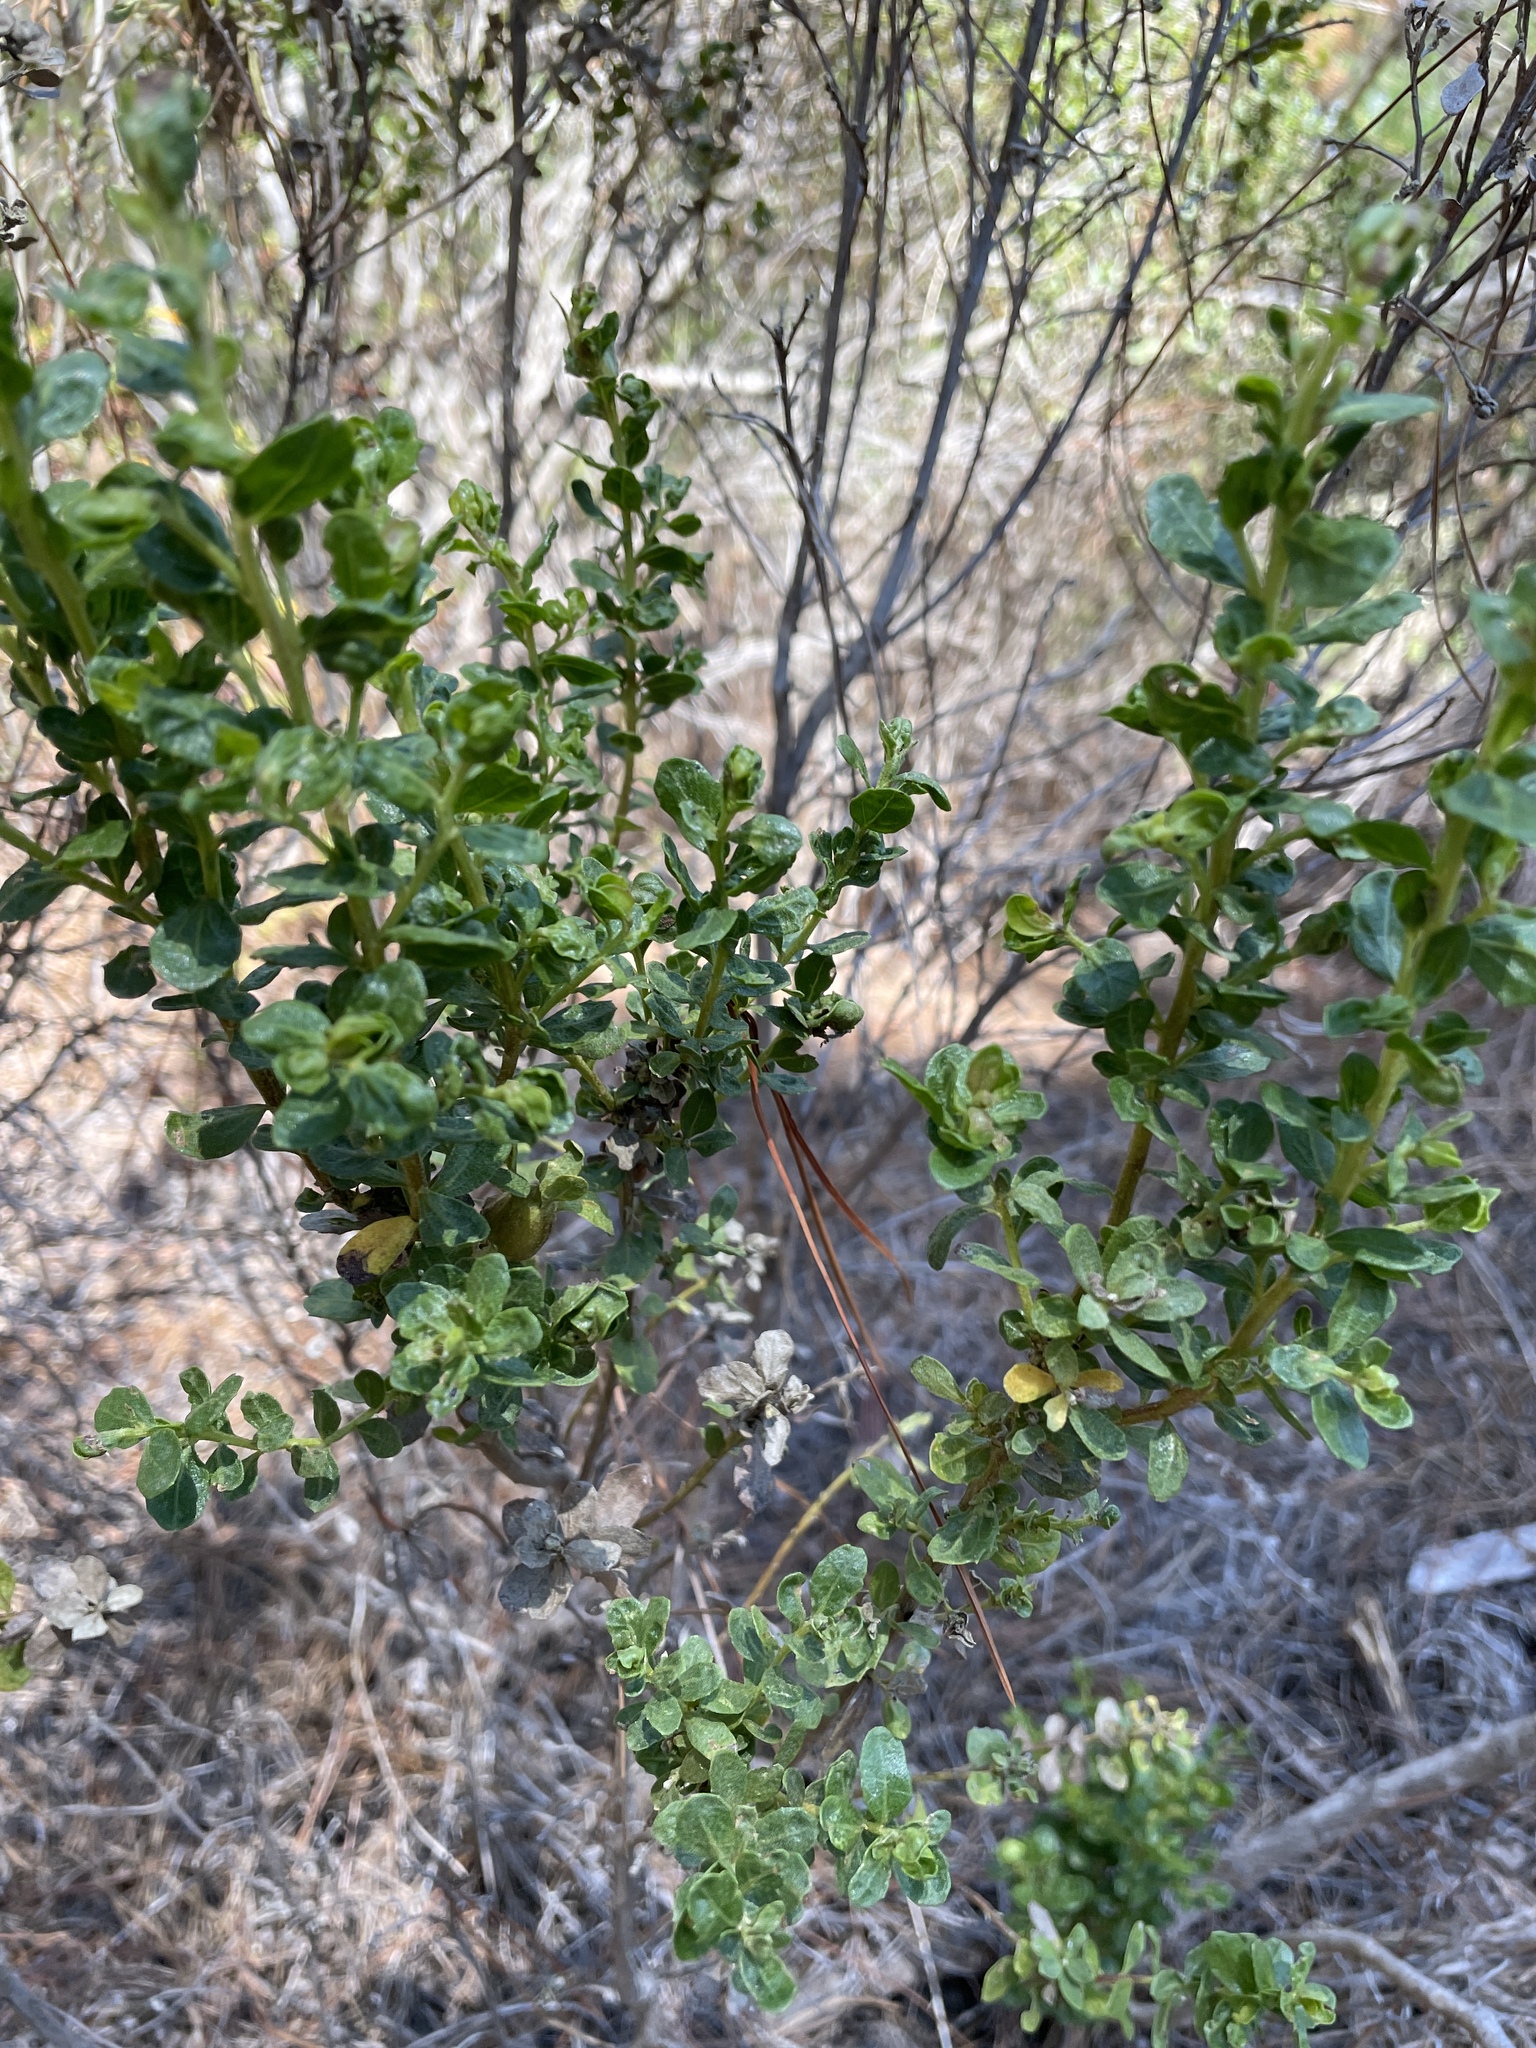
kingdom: Plantae
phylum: Tracheophyta
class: Magnoliopsida
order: Asterales
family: Asteraceae
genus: Baccharis
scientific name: Baccharis pilularis
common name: Coyotebrush
